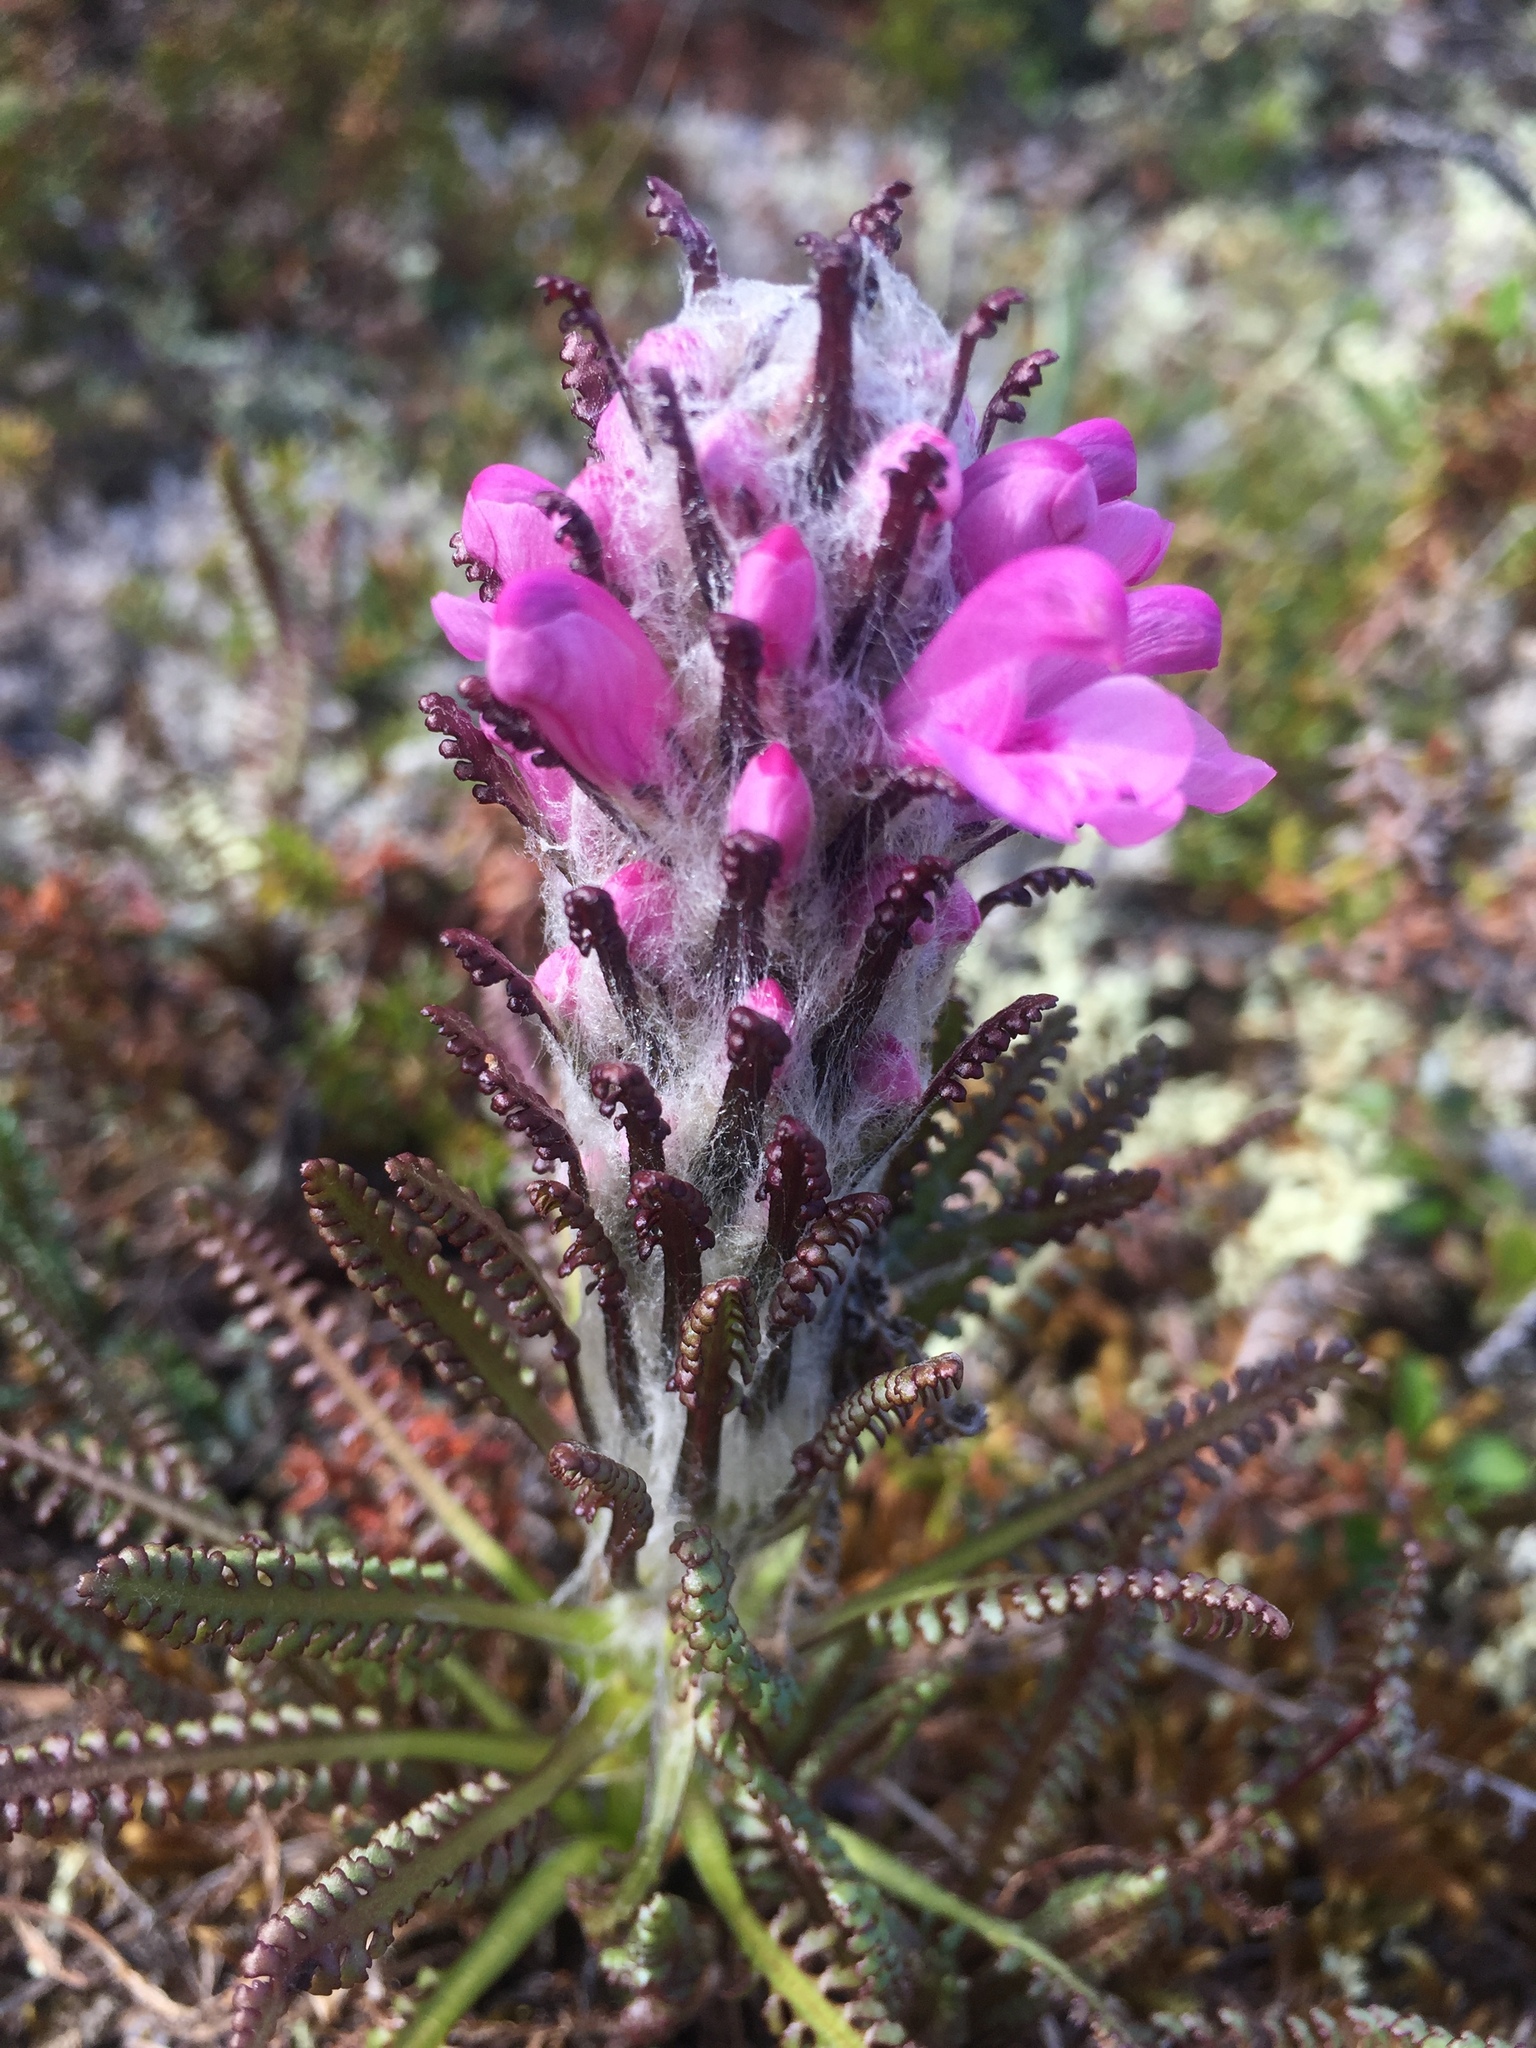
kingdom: Plantae
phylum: Tracheophyta
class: Magnoliopsida
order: Lamiales
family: Orobanchaceae
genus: Pedicularis
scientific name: Pedicularis lanata
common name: Woolly lousewort
